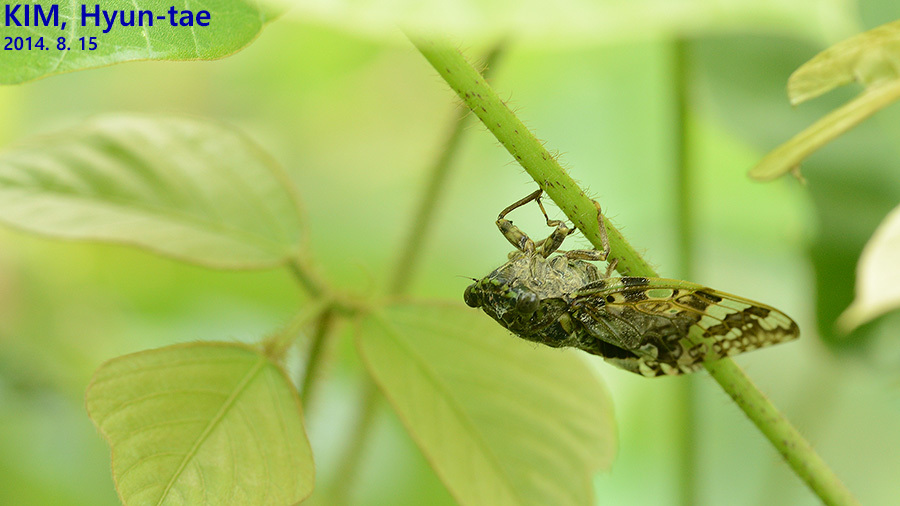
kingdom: Animalia
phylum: Arthropoda
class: Insecta
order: Hemiptera
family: Cicadidae
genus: Platypleura
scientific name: Platypleura kaempferi
